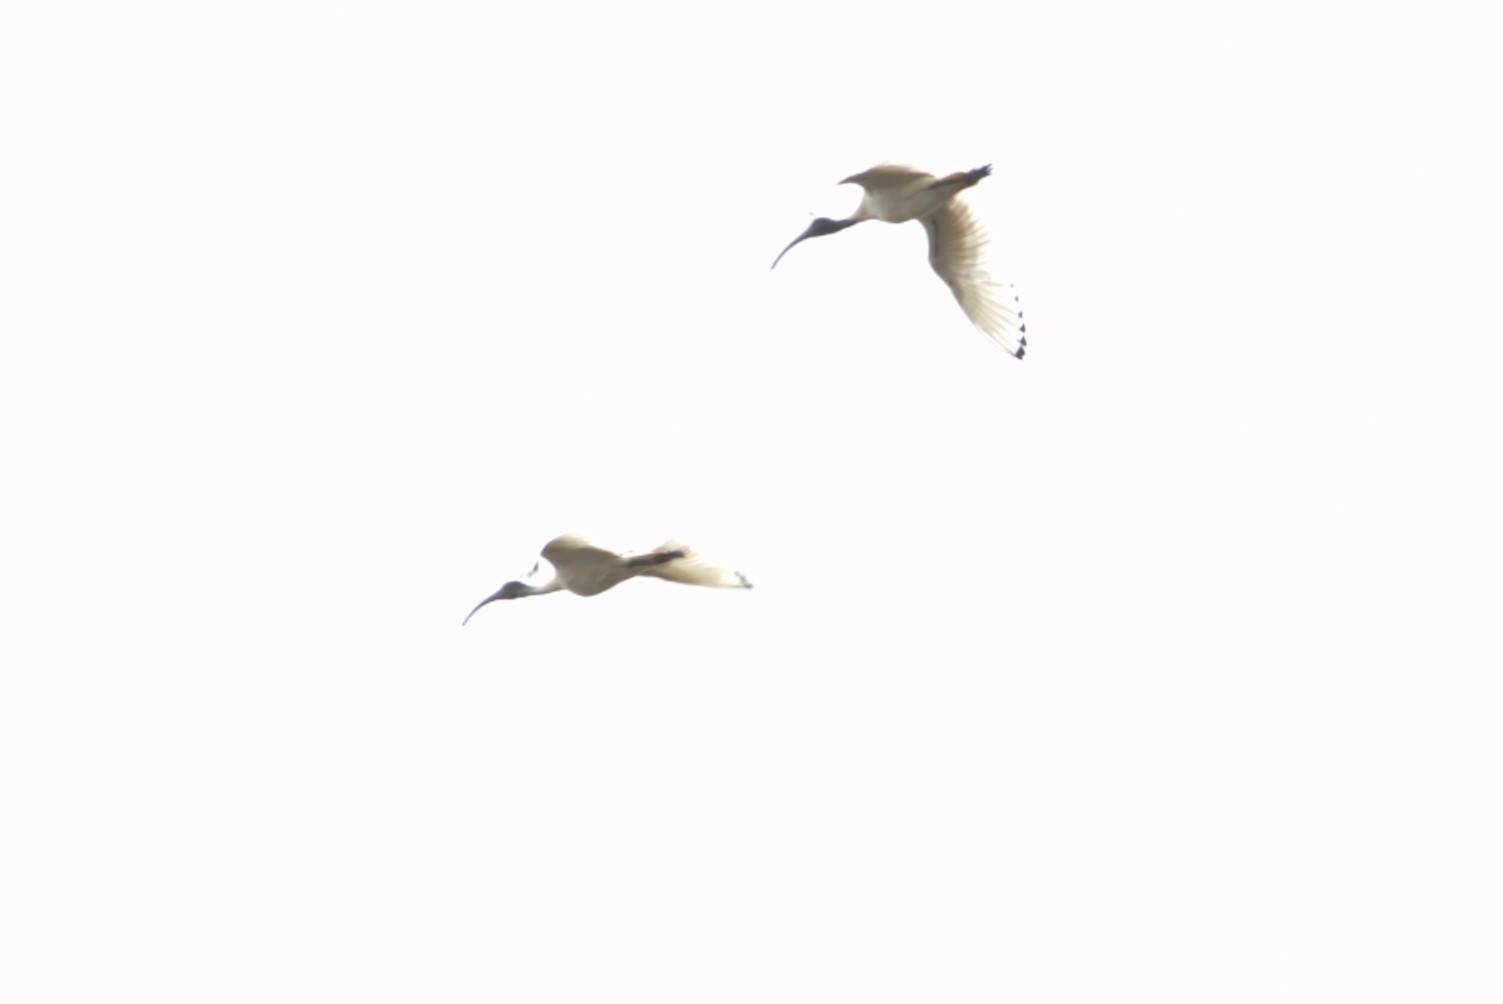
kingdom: Animalia
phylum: Chordata
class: Aves
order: Pelecaniformes
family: Threskiornithidae
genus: Threskiornis
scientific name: Threskiornis molucca
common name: Australian white ibis
